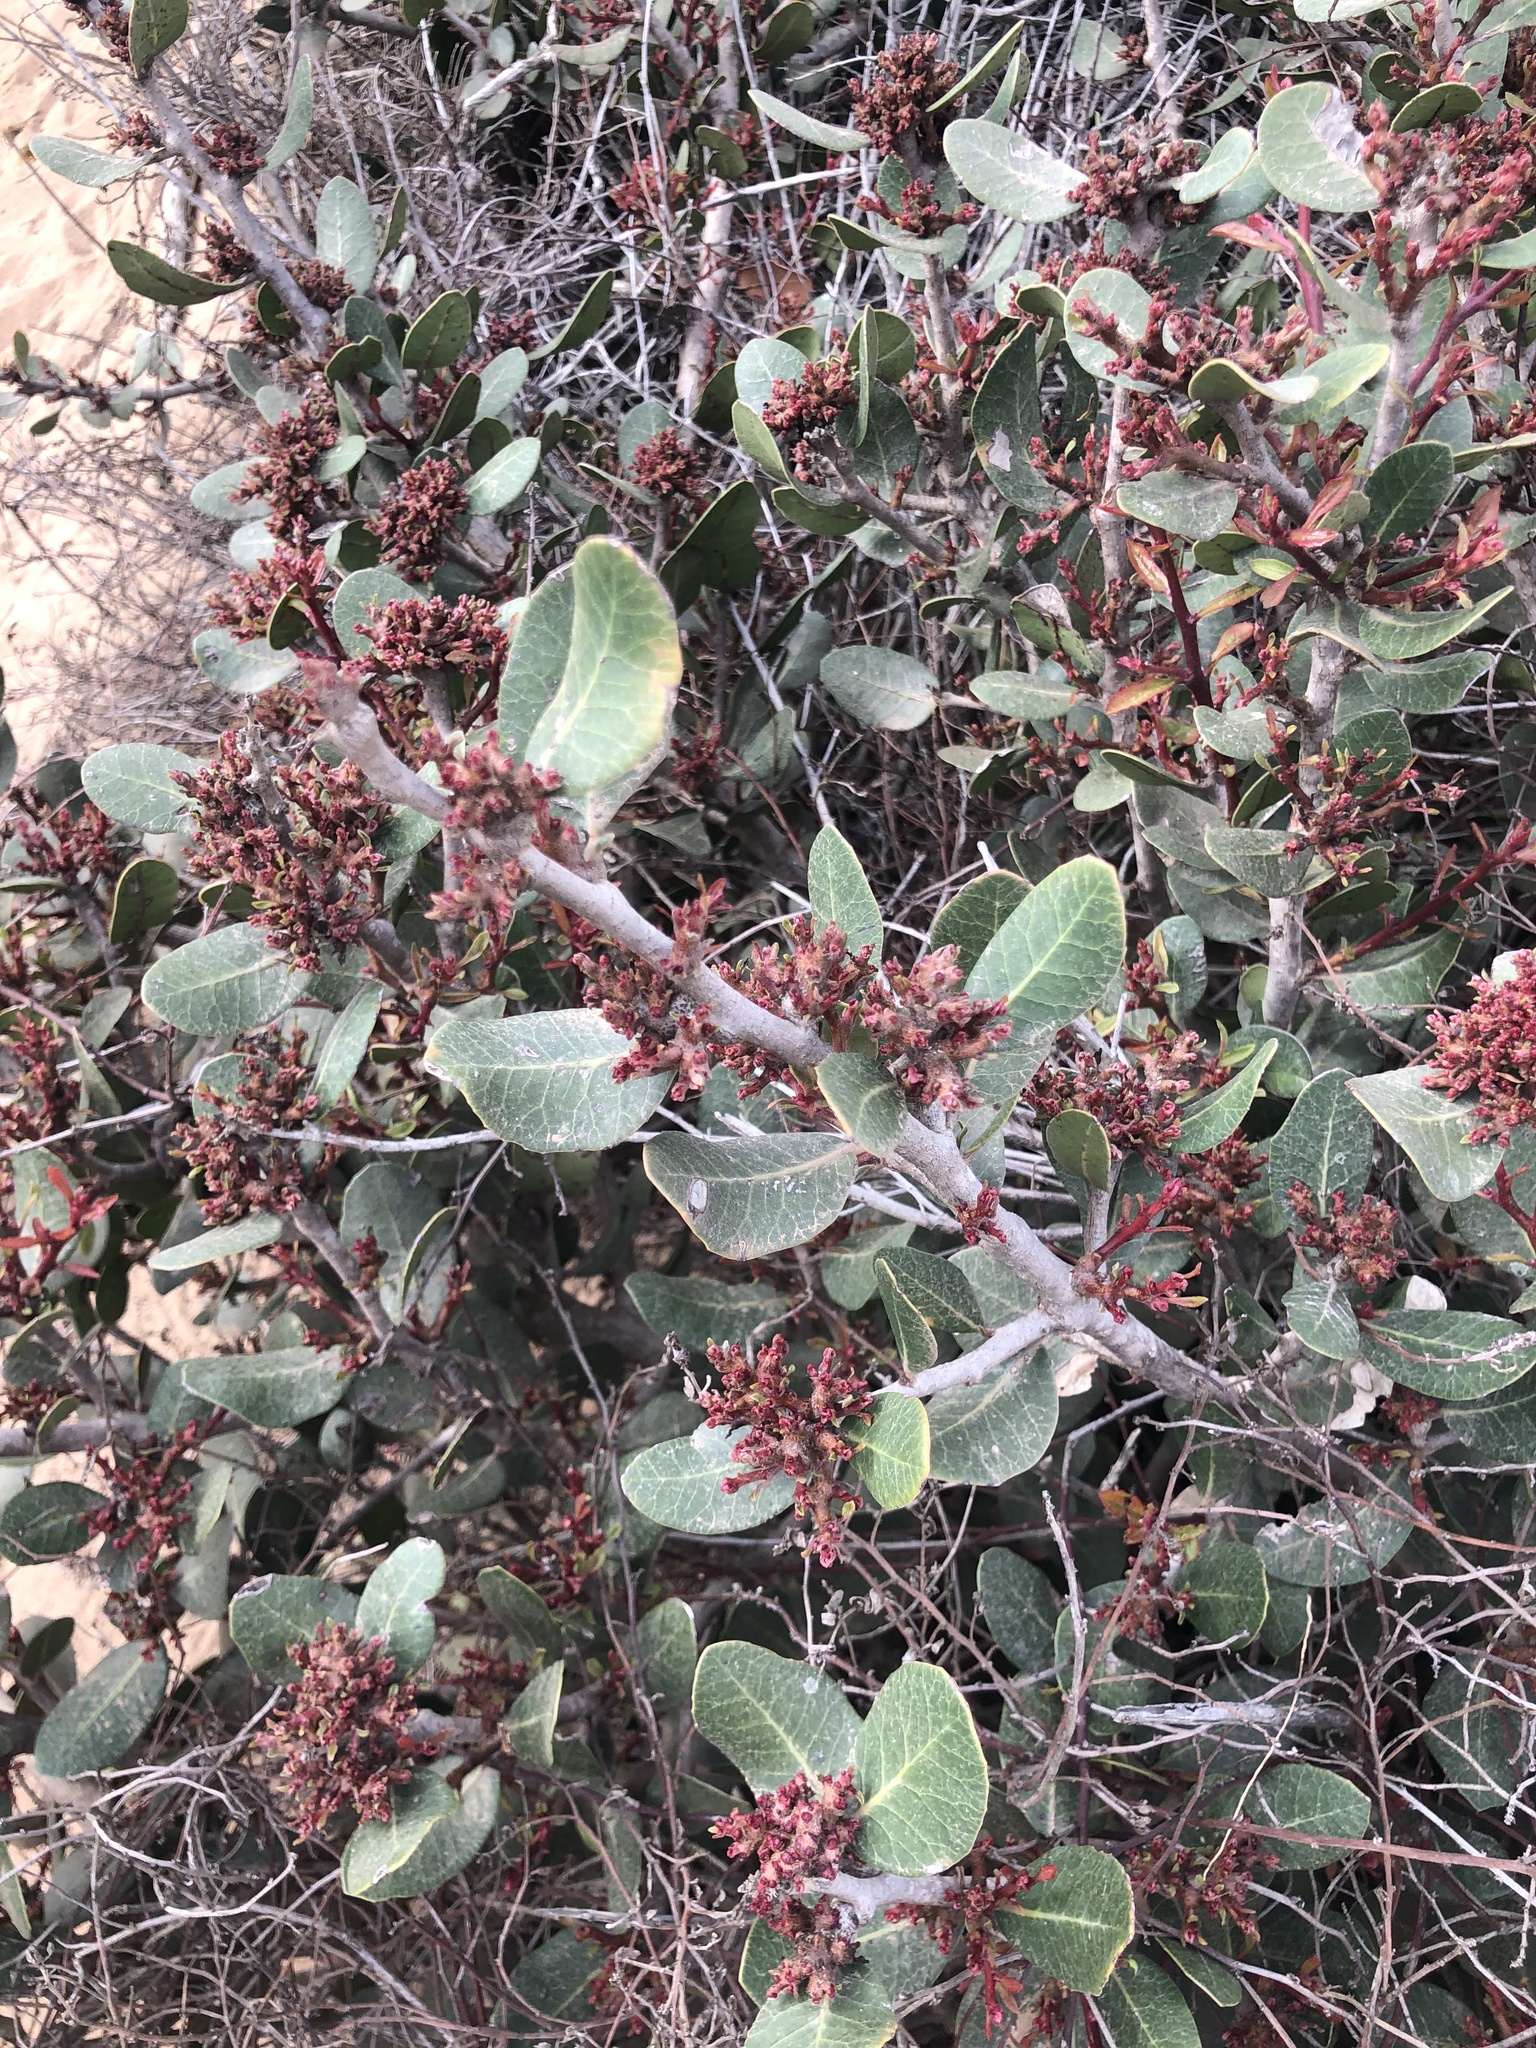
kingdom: Plantae
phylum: Tracheophyta
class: Magnoliopsida
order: Sapindales
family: Anacardiaceae
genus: Rhus
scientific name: Rhus integrifolia
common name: Lemonade sumac
